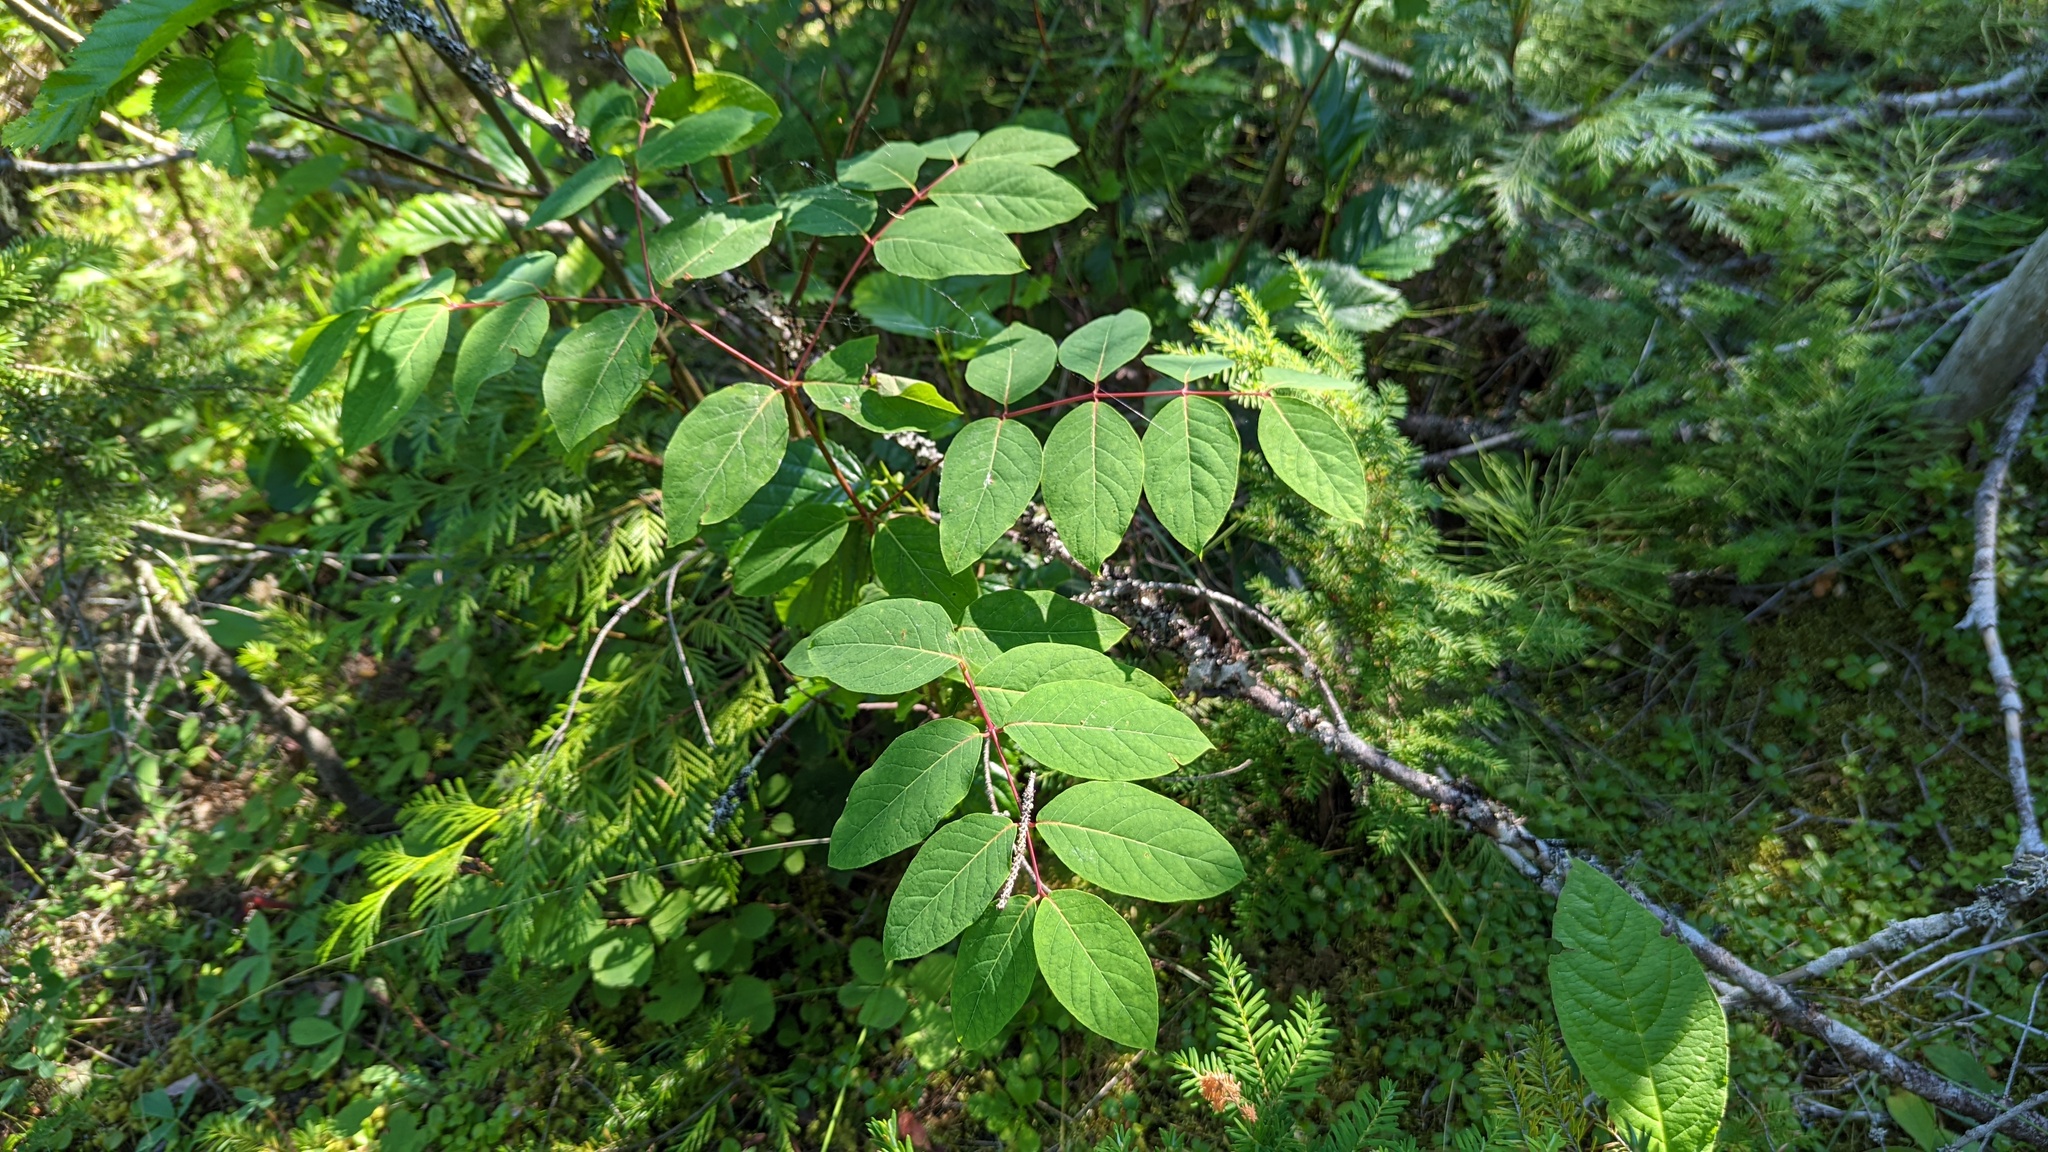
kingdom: Plantae
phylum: Tracheophyta
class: Magnoliopsida
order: Gentianales
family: Apocynaceae
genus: Apocynum
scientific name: Apocynum androsaemifolium
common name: Spreading dogbane
